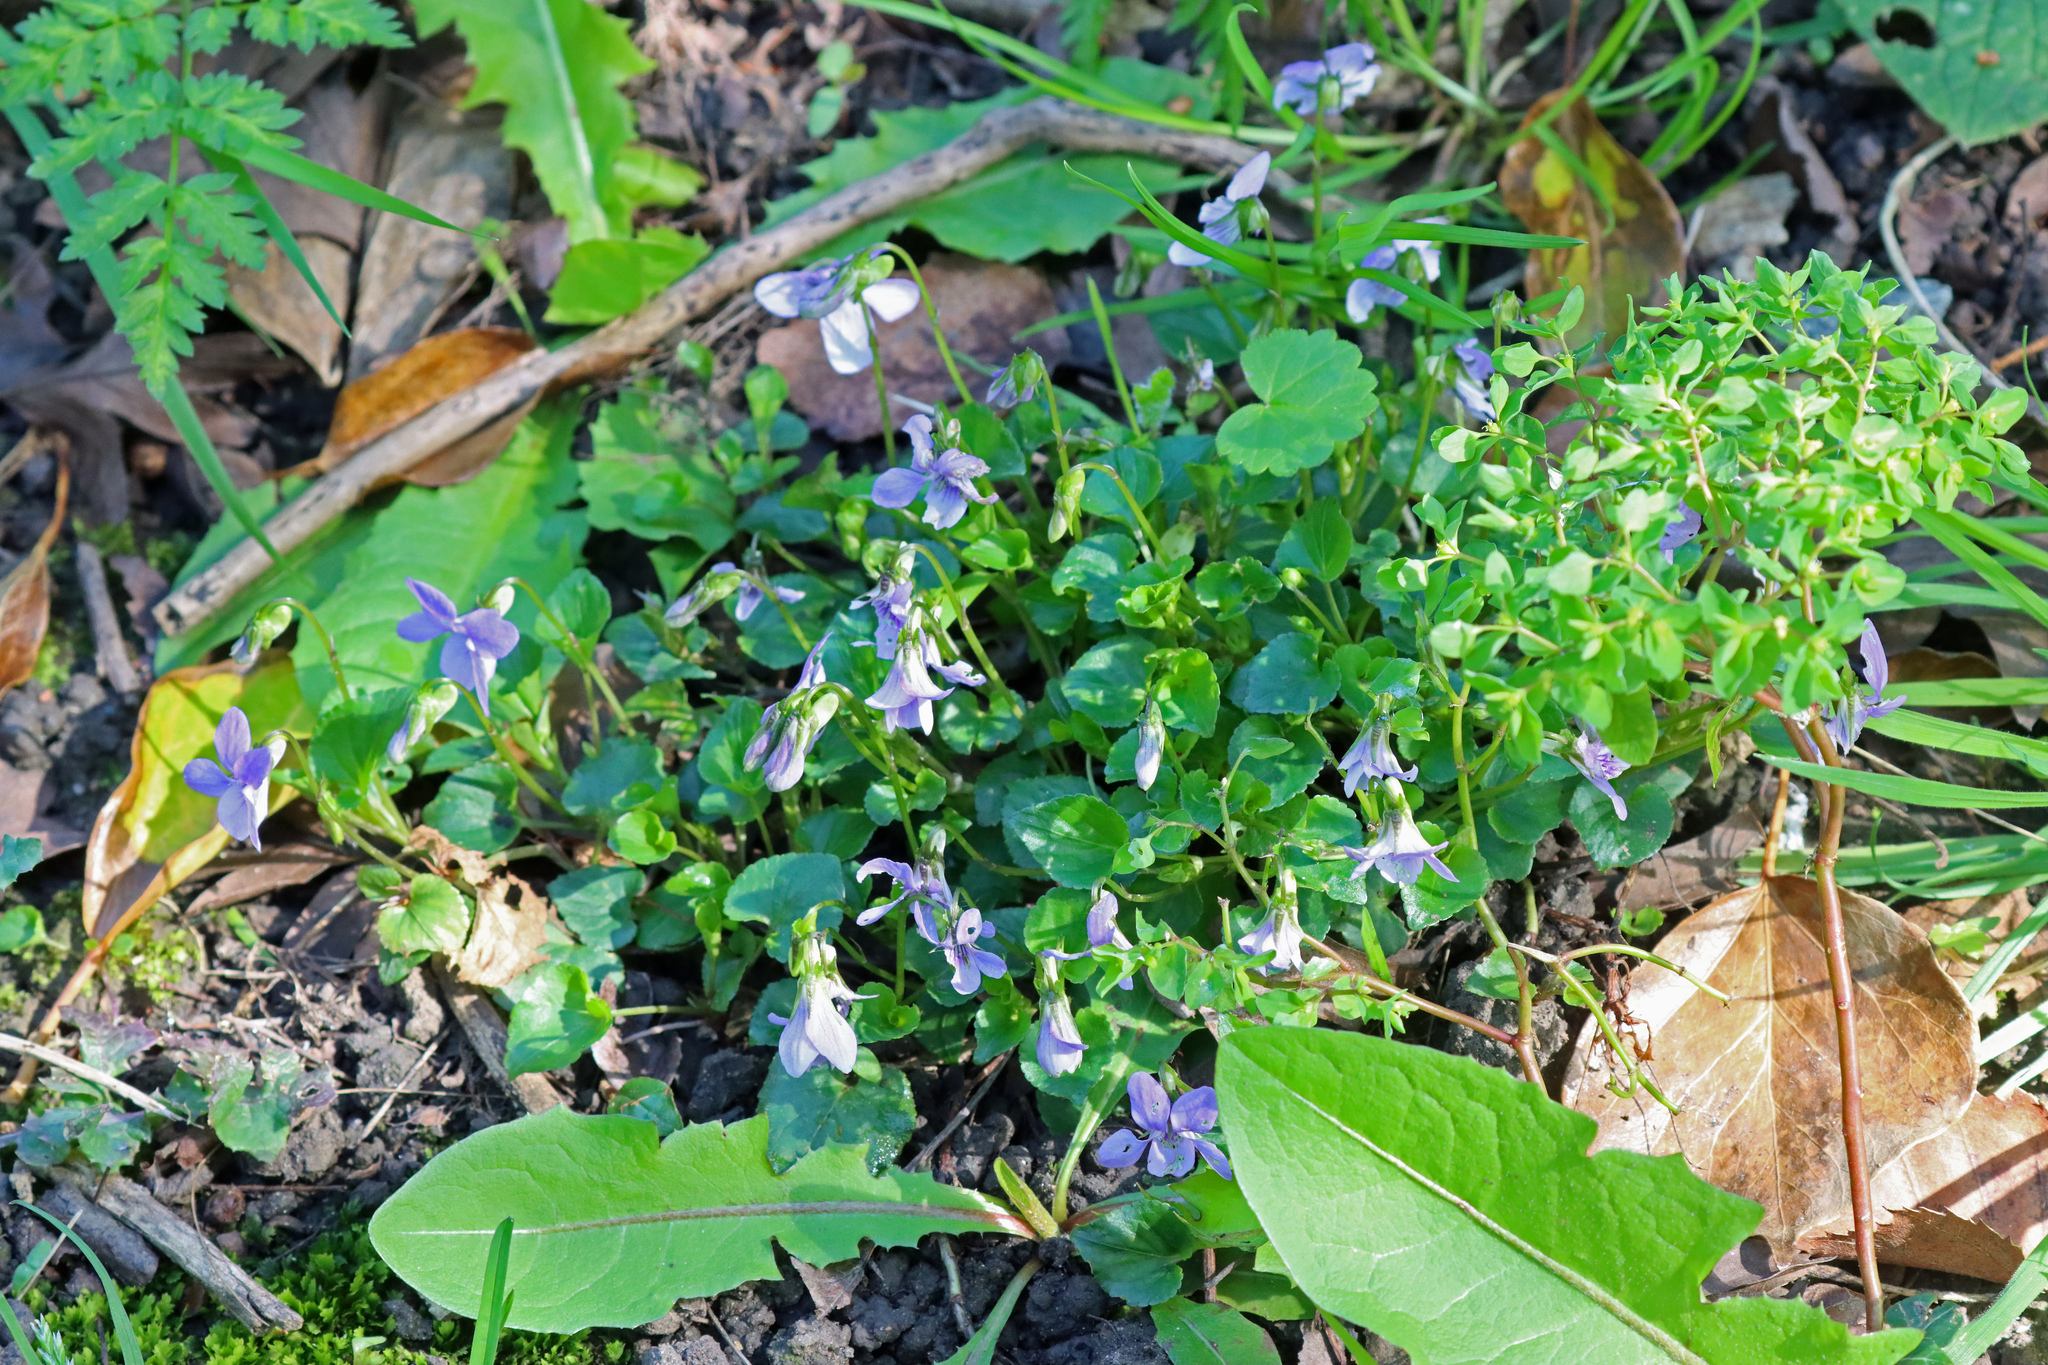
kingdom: Plantae
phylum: Tracheophyta
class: Magnoliopsida
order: Malpighiales
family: Violaceae
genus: Viola
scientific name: Viola riviniana
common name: Common dog-violet
